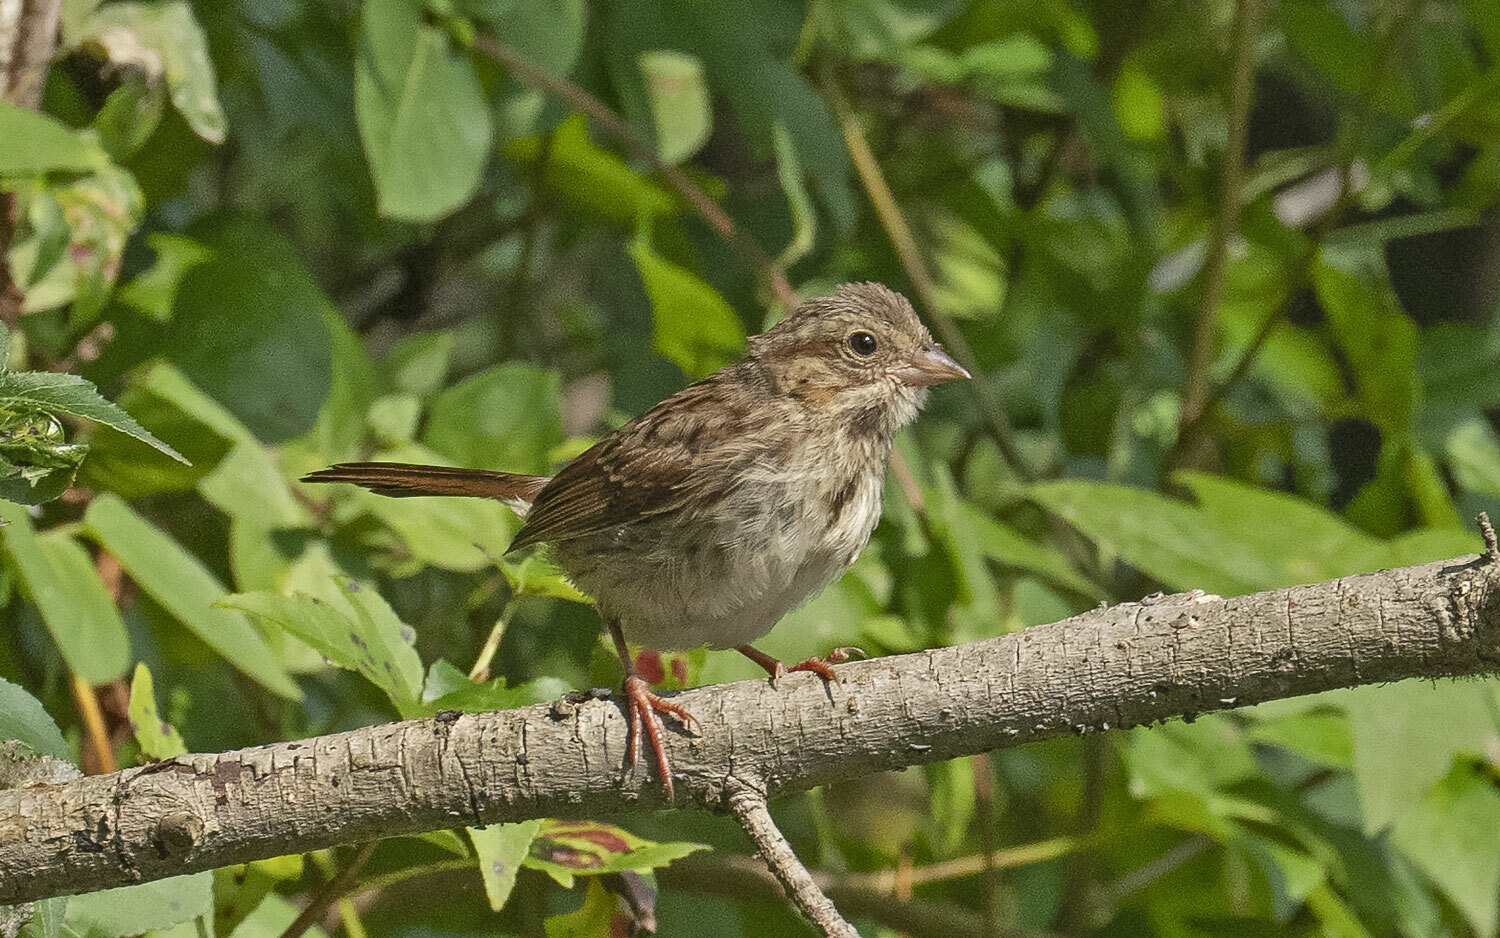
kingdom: Animalia
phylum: Chordata
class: Aves
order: Passeriformes
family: Passerellidae
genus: Melospiza
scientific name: Melospiza melodia
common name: Song sparrow
